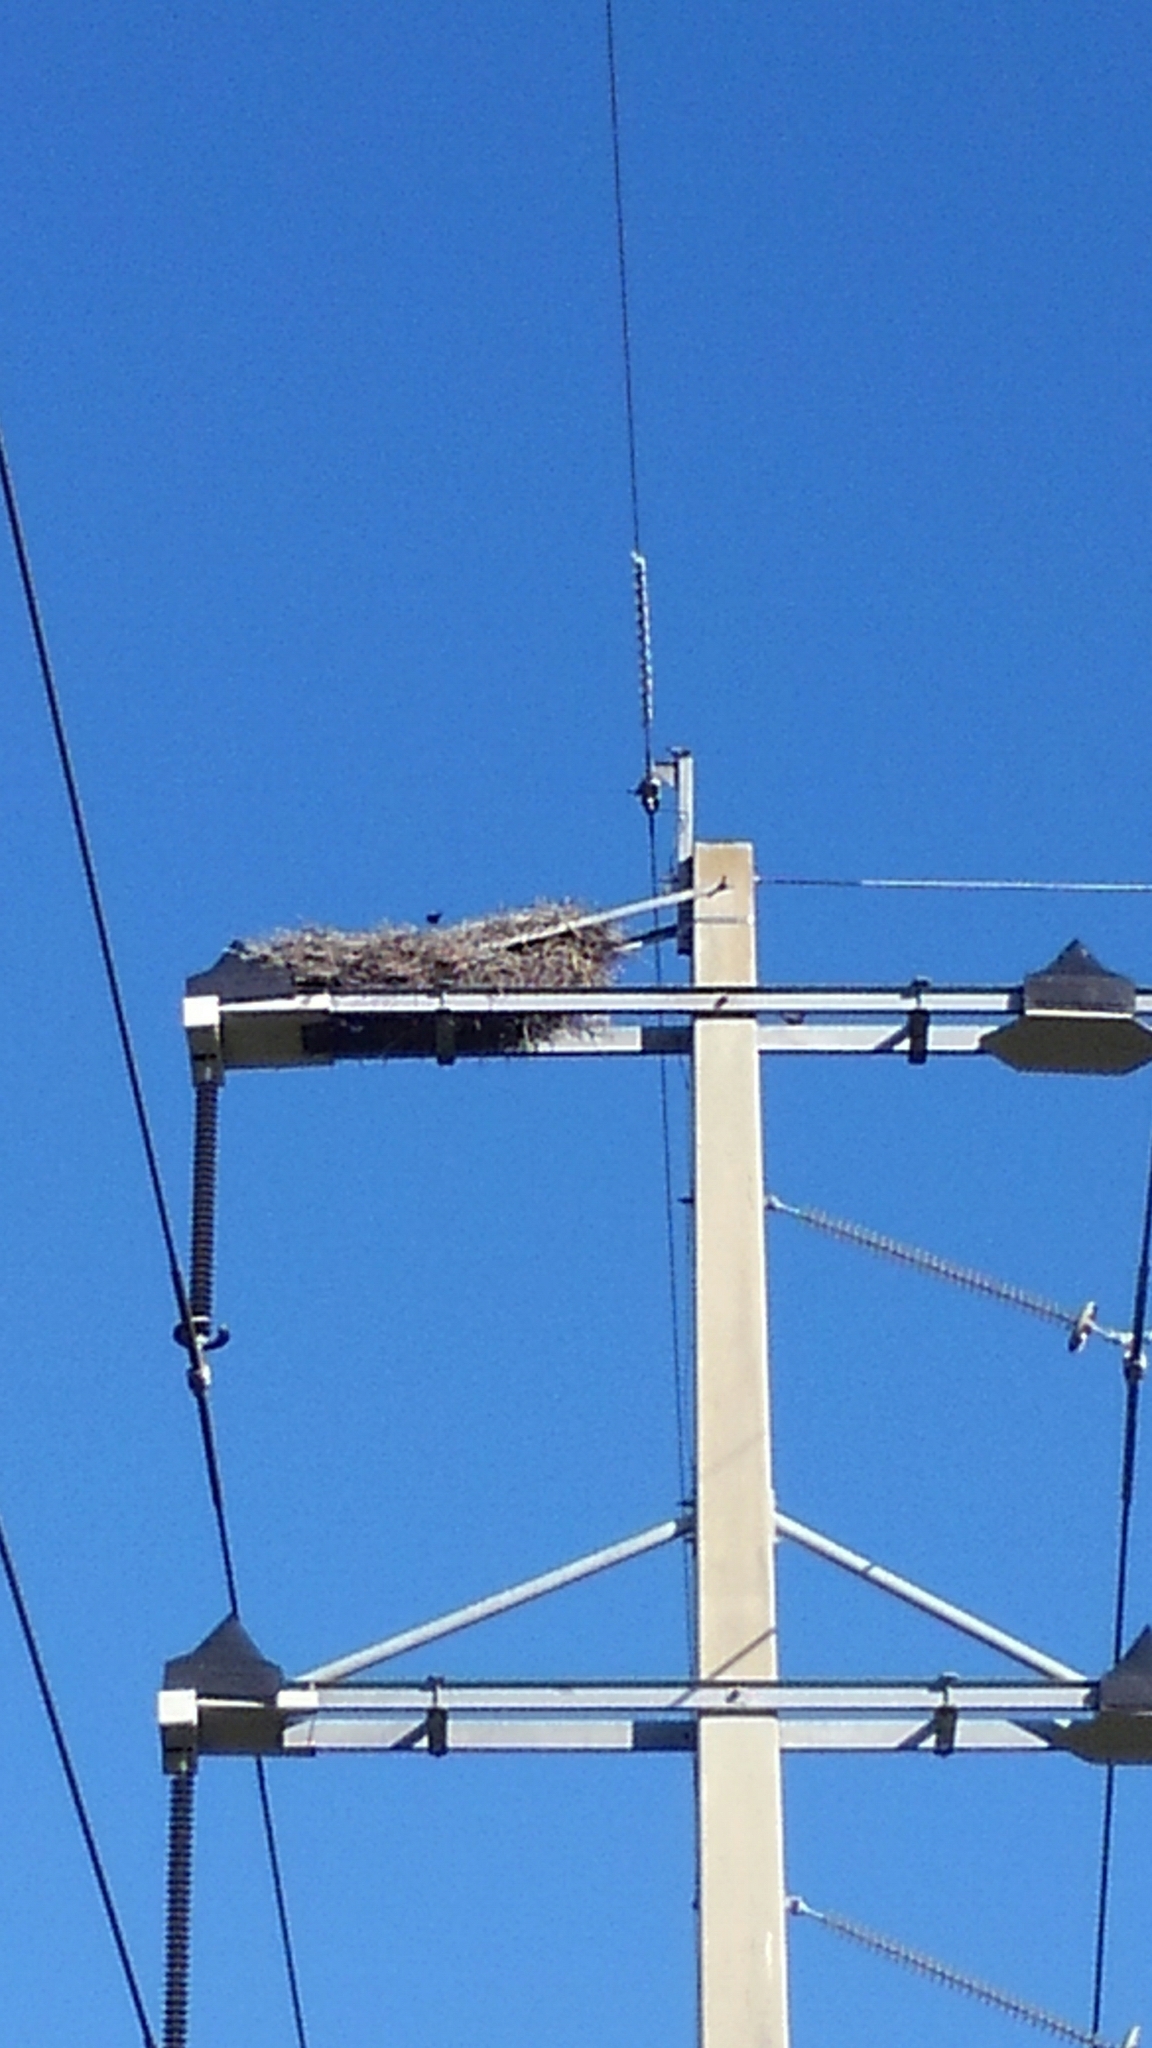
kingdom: Animalia
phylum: Chordata
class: Aves
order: Accipitriformes
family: Pandionidae
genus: Pandion
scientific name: Pandion haliaetus
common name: Osprey
